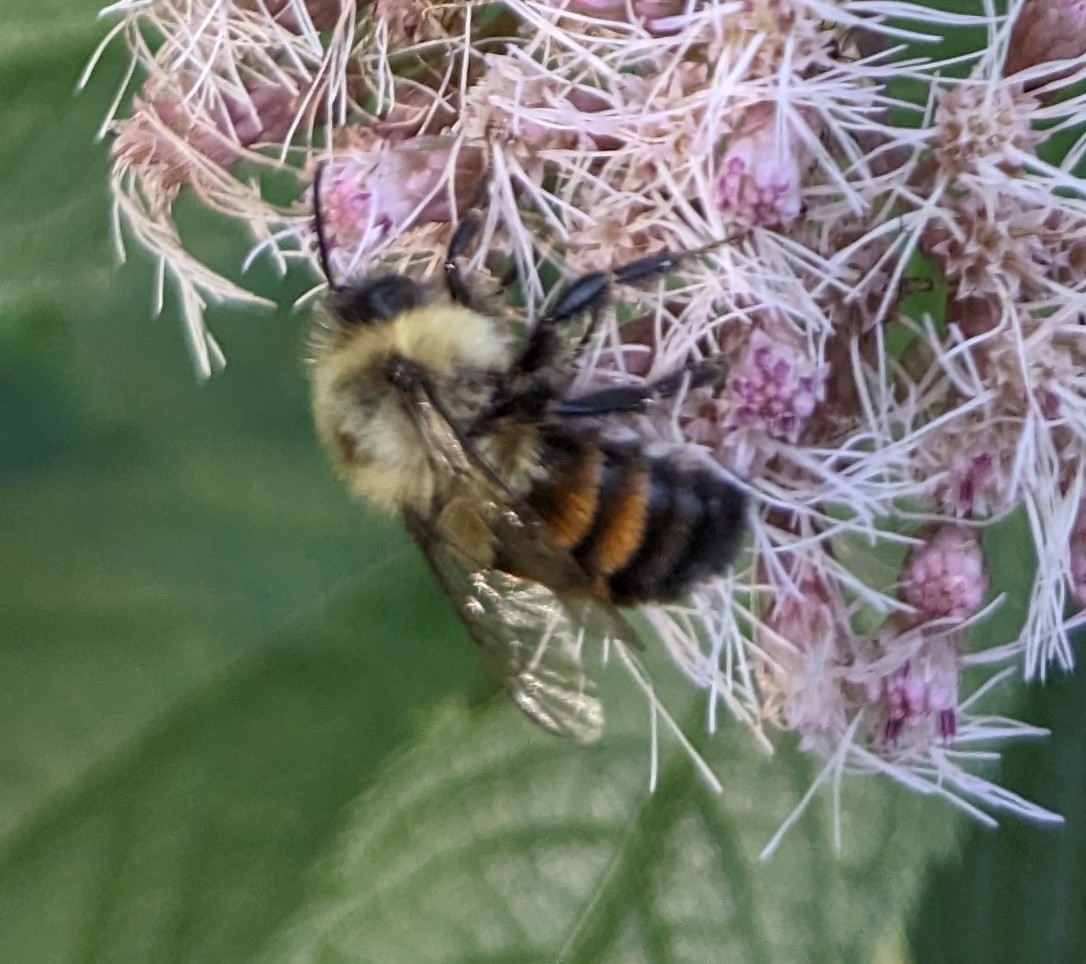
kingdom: Animalia
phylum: Arthropoda
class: Insecta
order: Hymenoptera
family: Apidae
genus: Bombus
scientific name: Bombus impatiens
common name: Common eastern bumble bee
